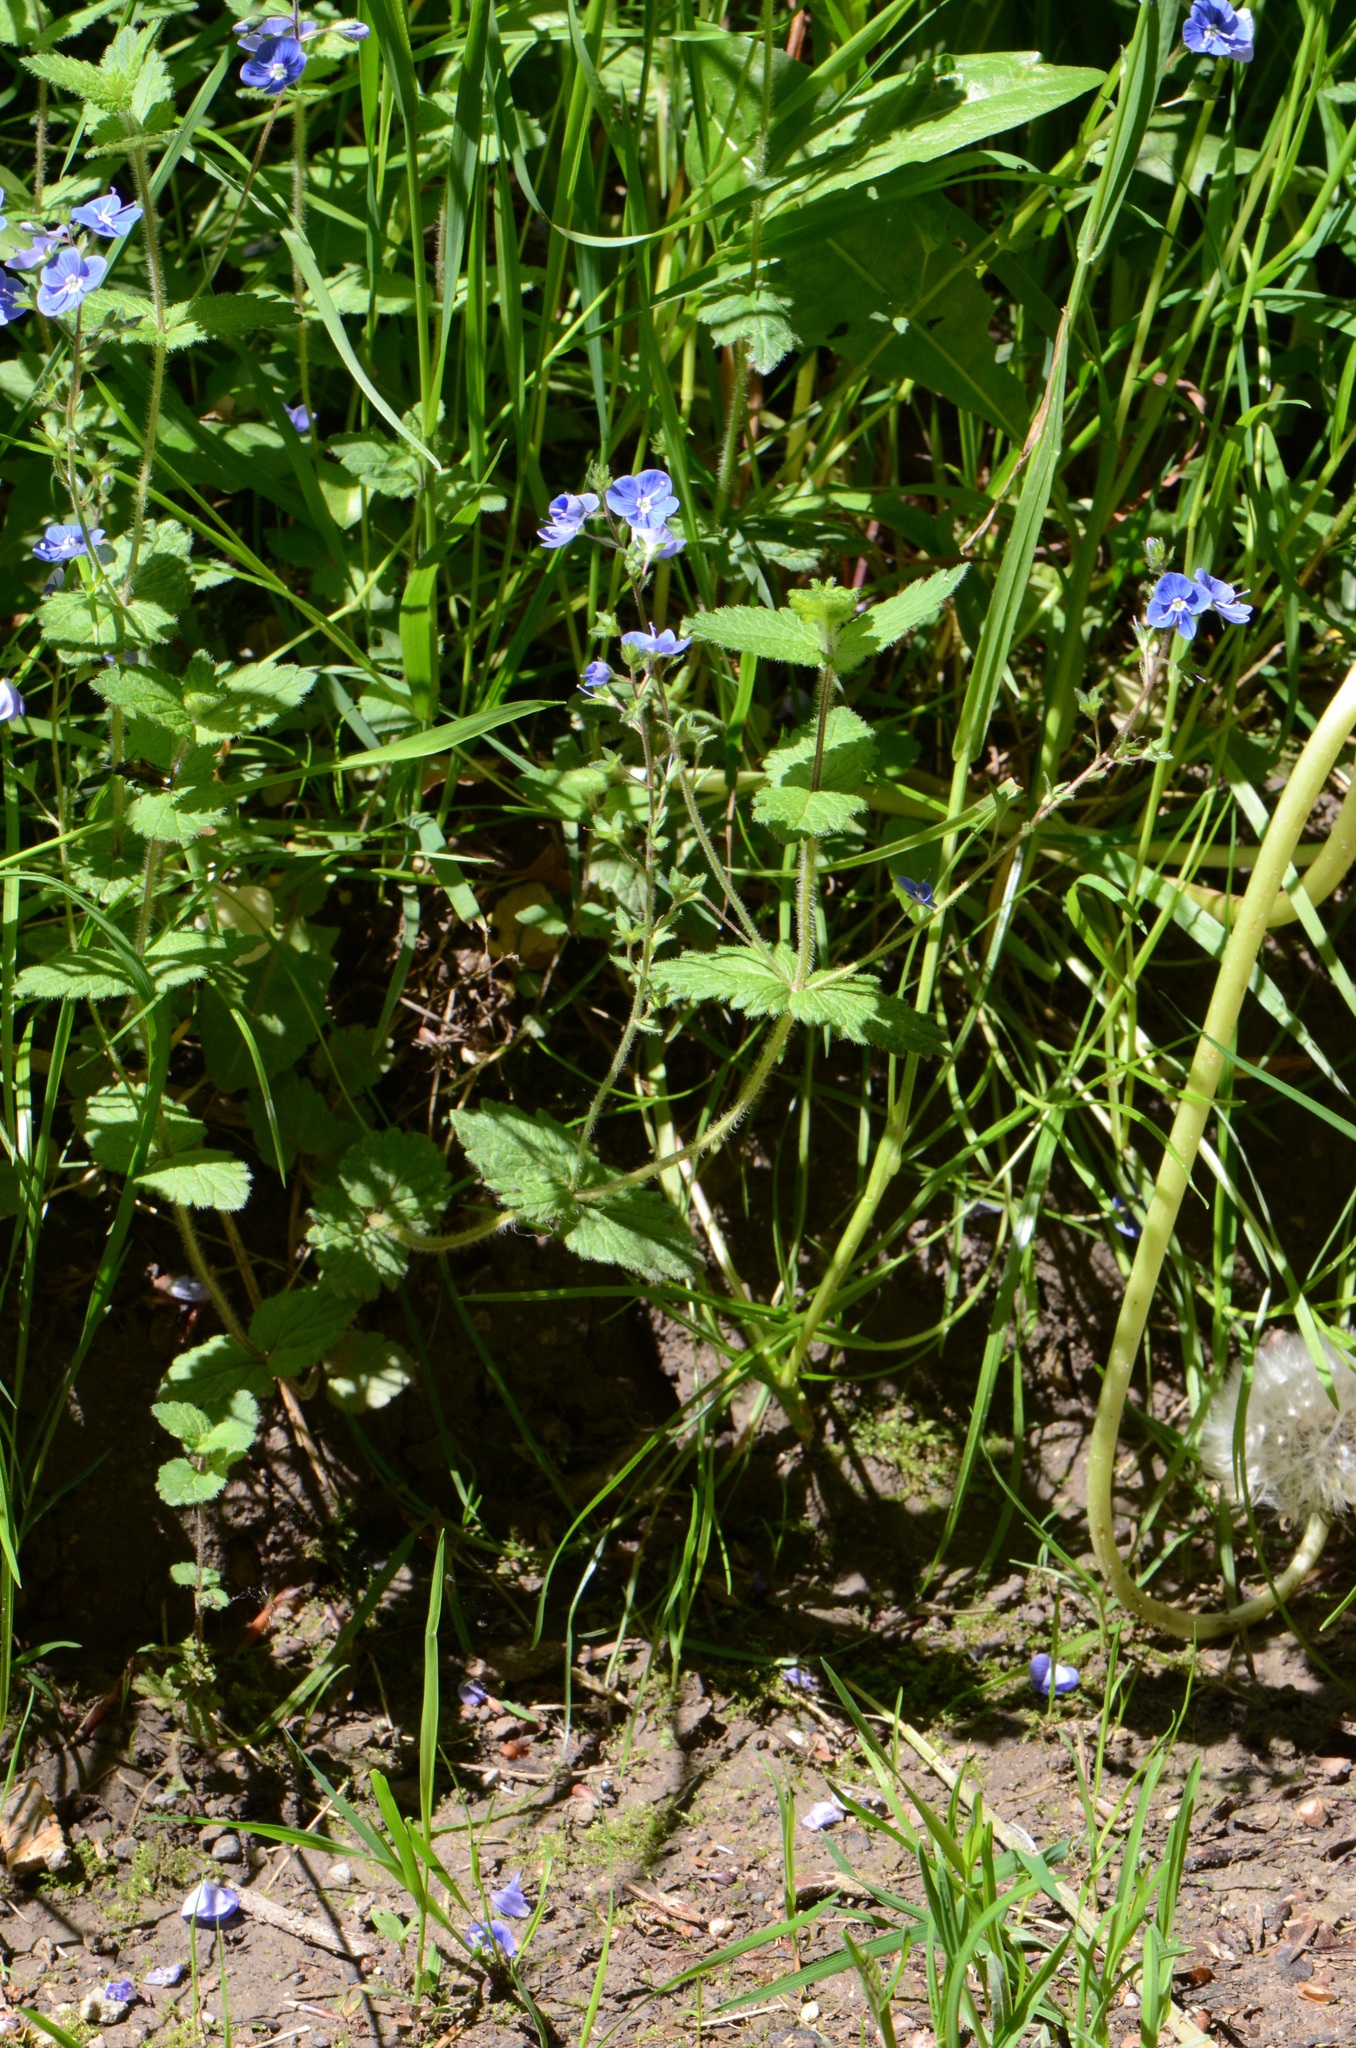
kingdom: Plantae
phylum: Tracheophyta
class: Magnoliopsida
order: Lamiales
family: Plantaginaceae
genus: Veronica
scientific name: Veronica chamaedrys
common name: Germander speedwell
